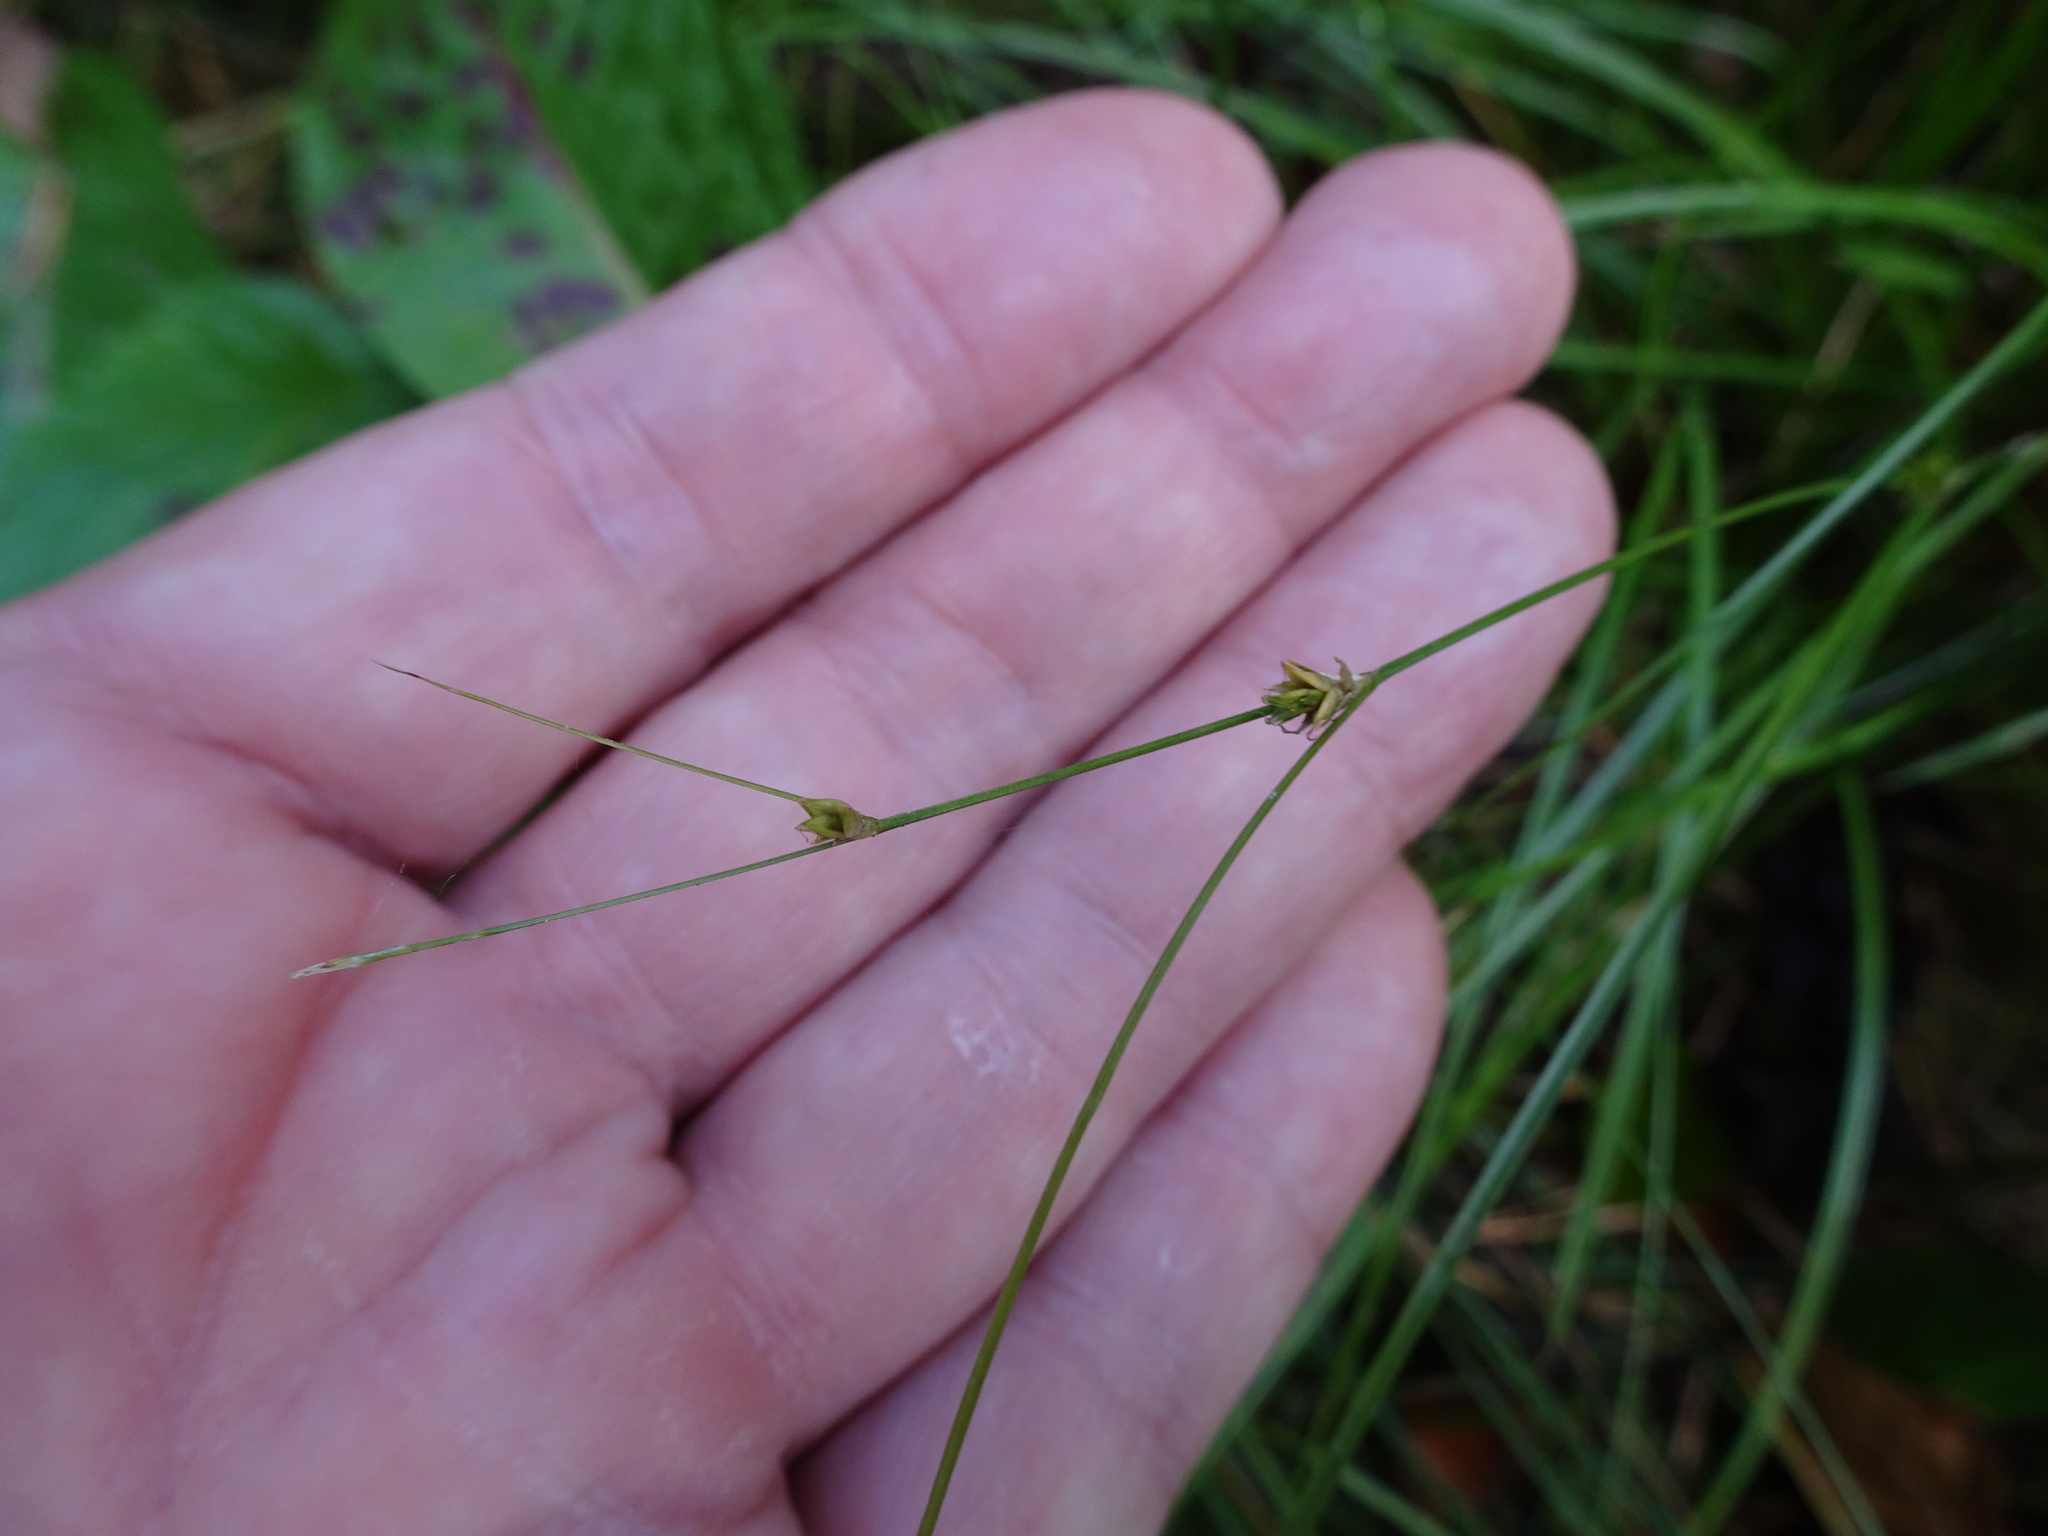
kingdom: Plantae
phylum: Tracheophyta
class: Liliopsida
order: Poales
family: Cyperaceae
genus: Carex
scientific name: Carex remota
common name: Remote sedge
